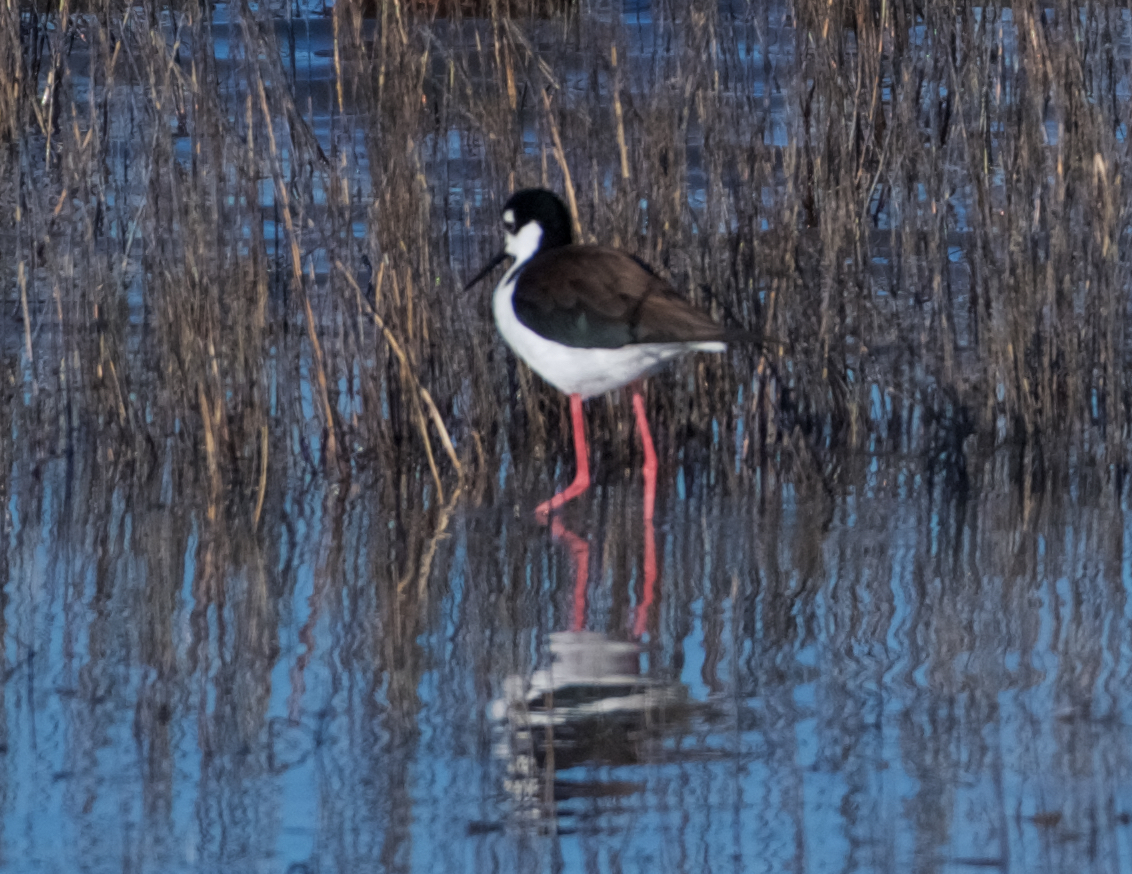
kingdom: Animalia
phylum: Chordata
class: Aves
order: Charadriiformes
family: Recurvirostridae
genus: Himantopus
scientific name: Himantopus mexicanus
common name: Black-necked stilt
